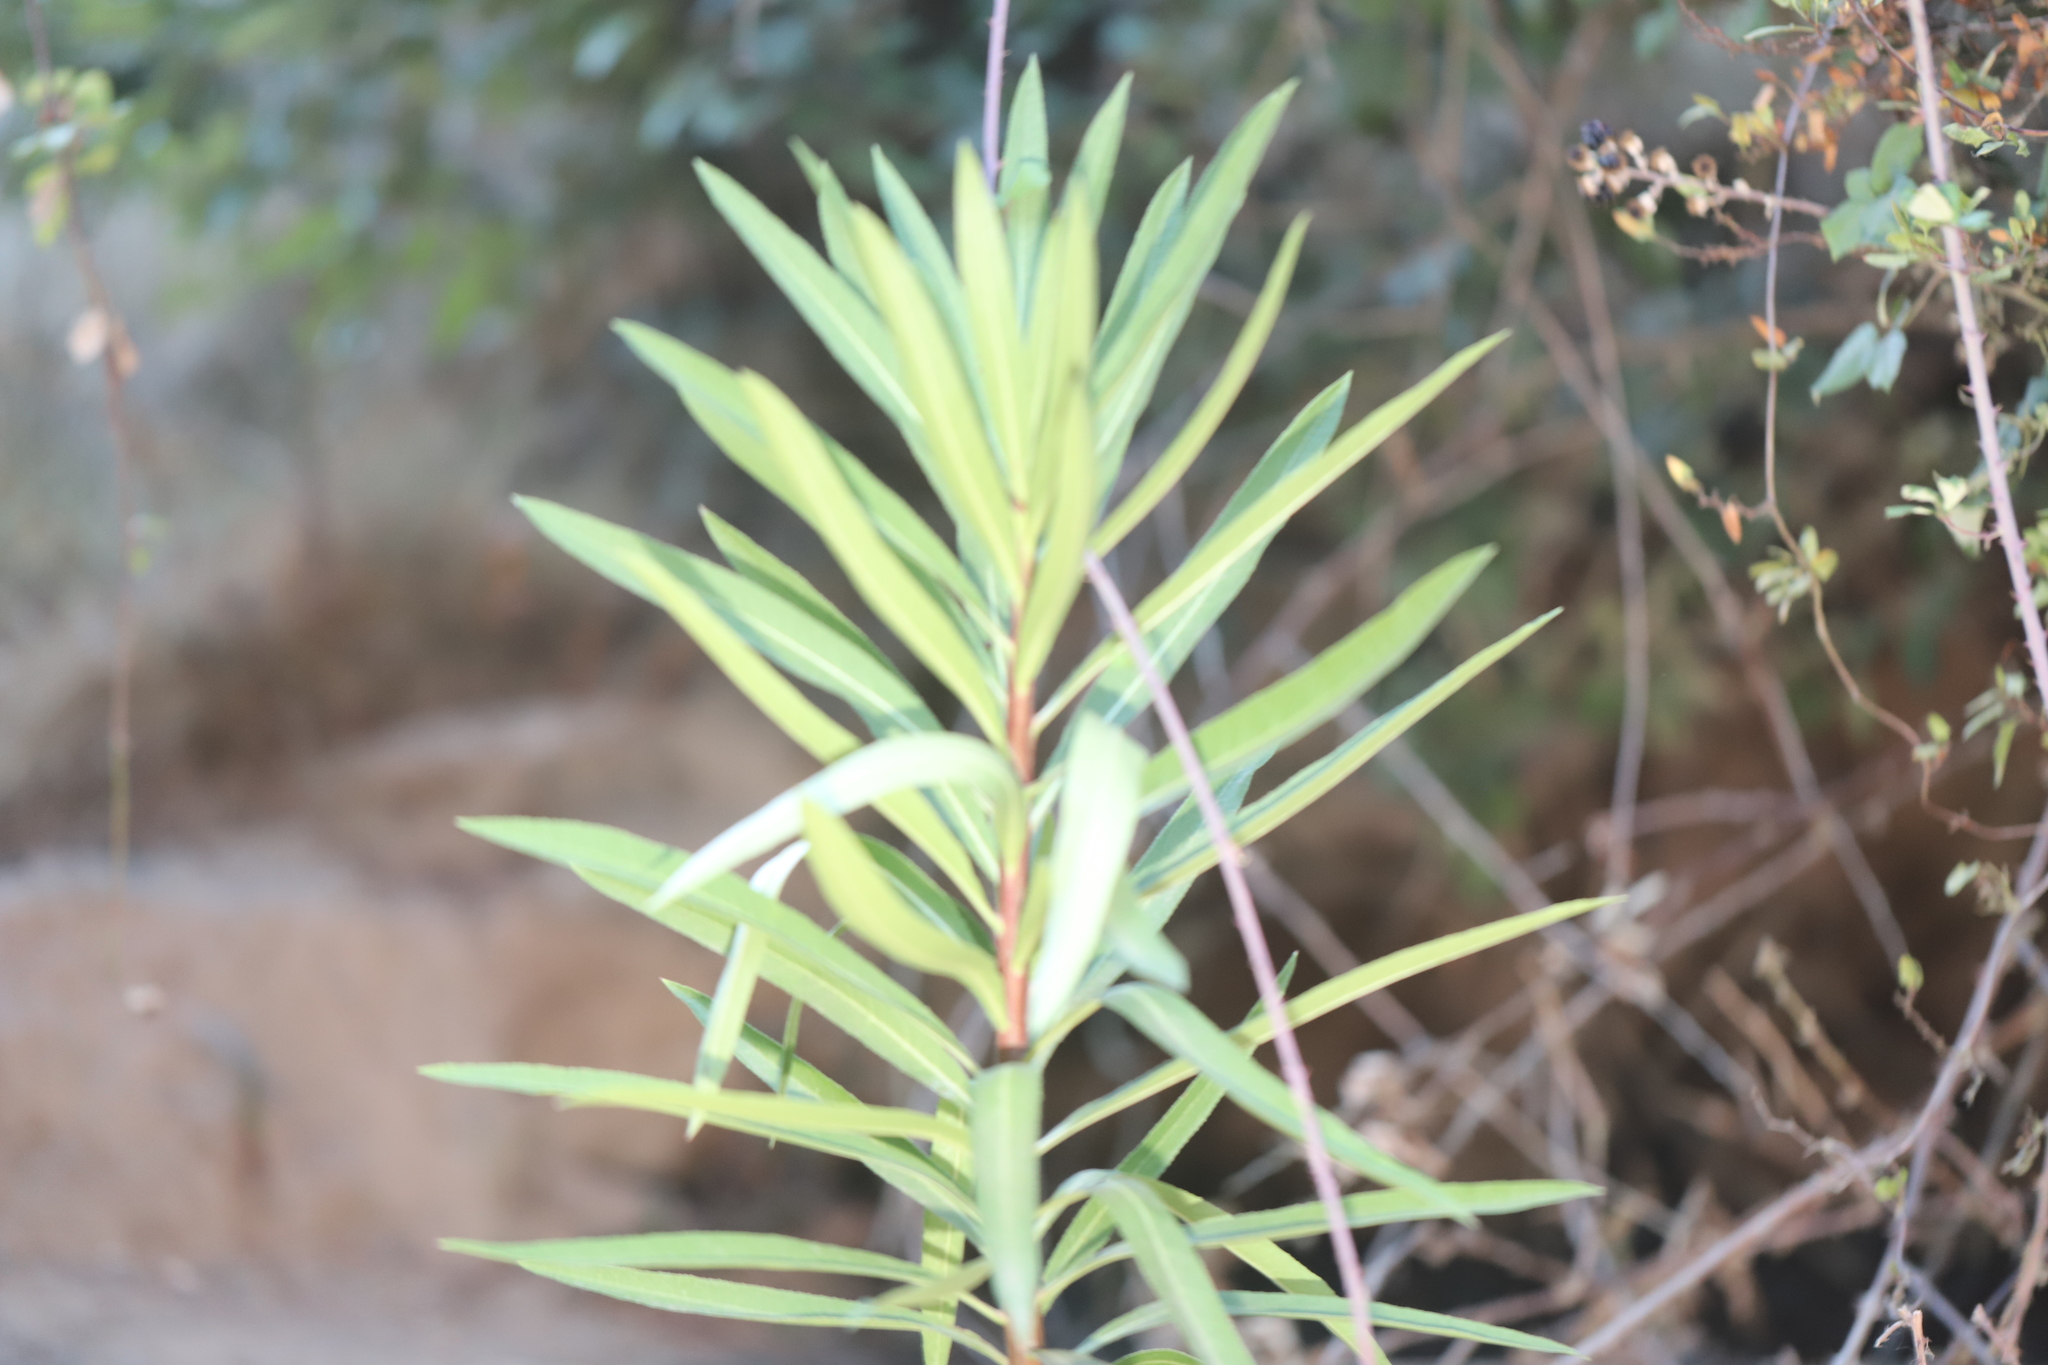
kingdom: Plantae
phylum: Tracheophyta
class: Magnoliopsida
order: Asterales
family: Campanulaceae
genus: Lobelia
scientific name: Lobelia excelsa
